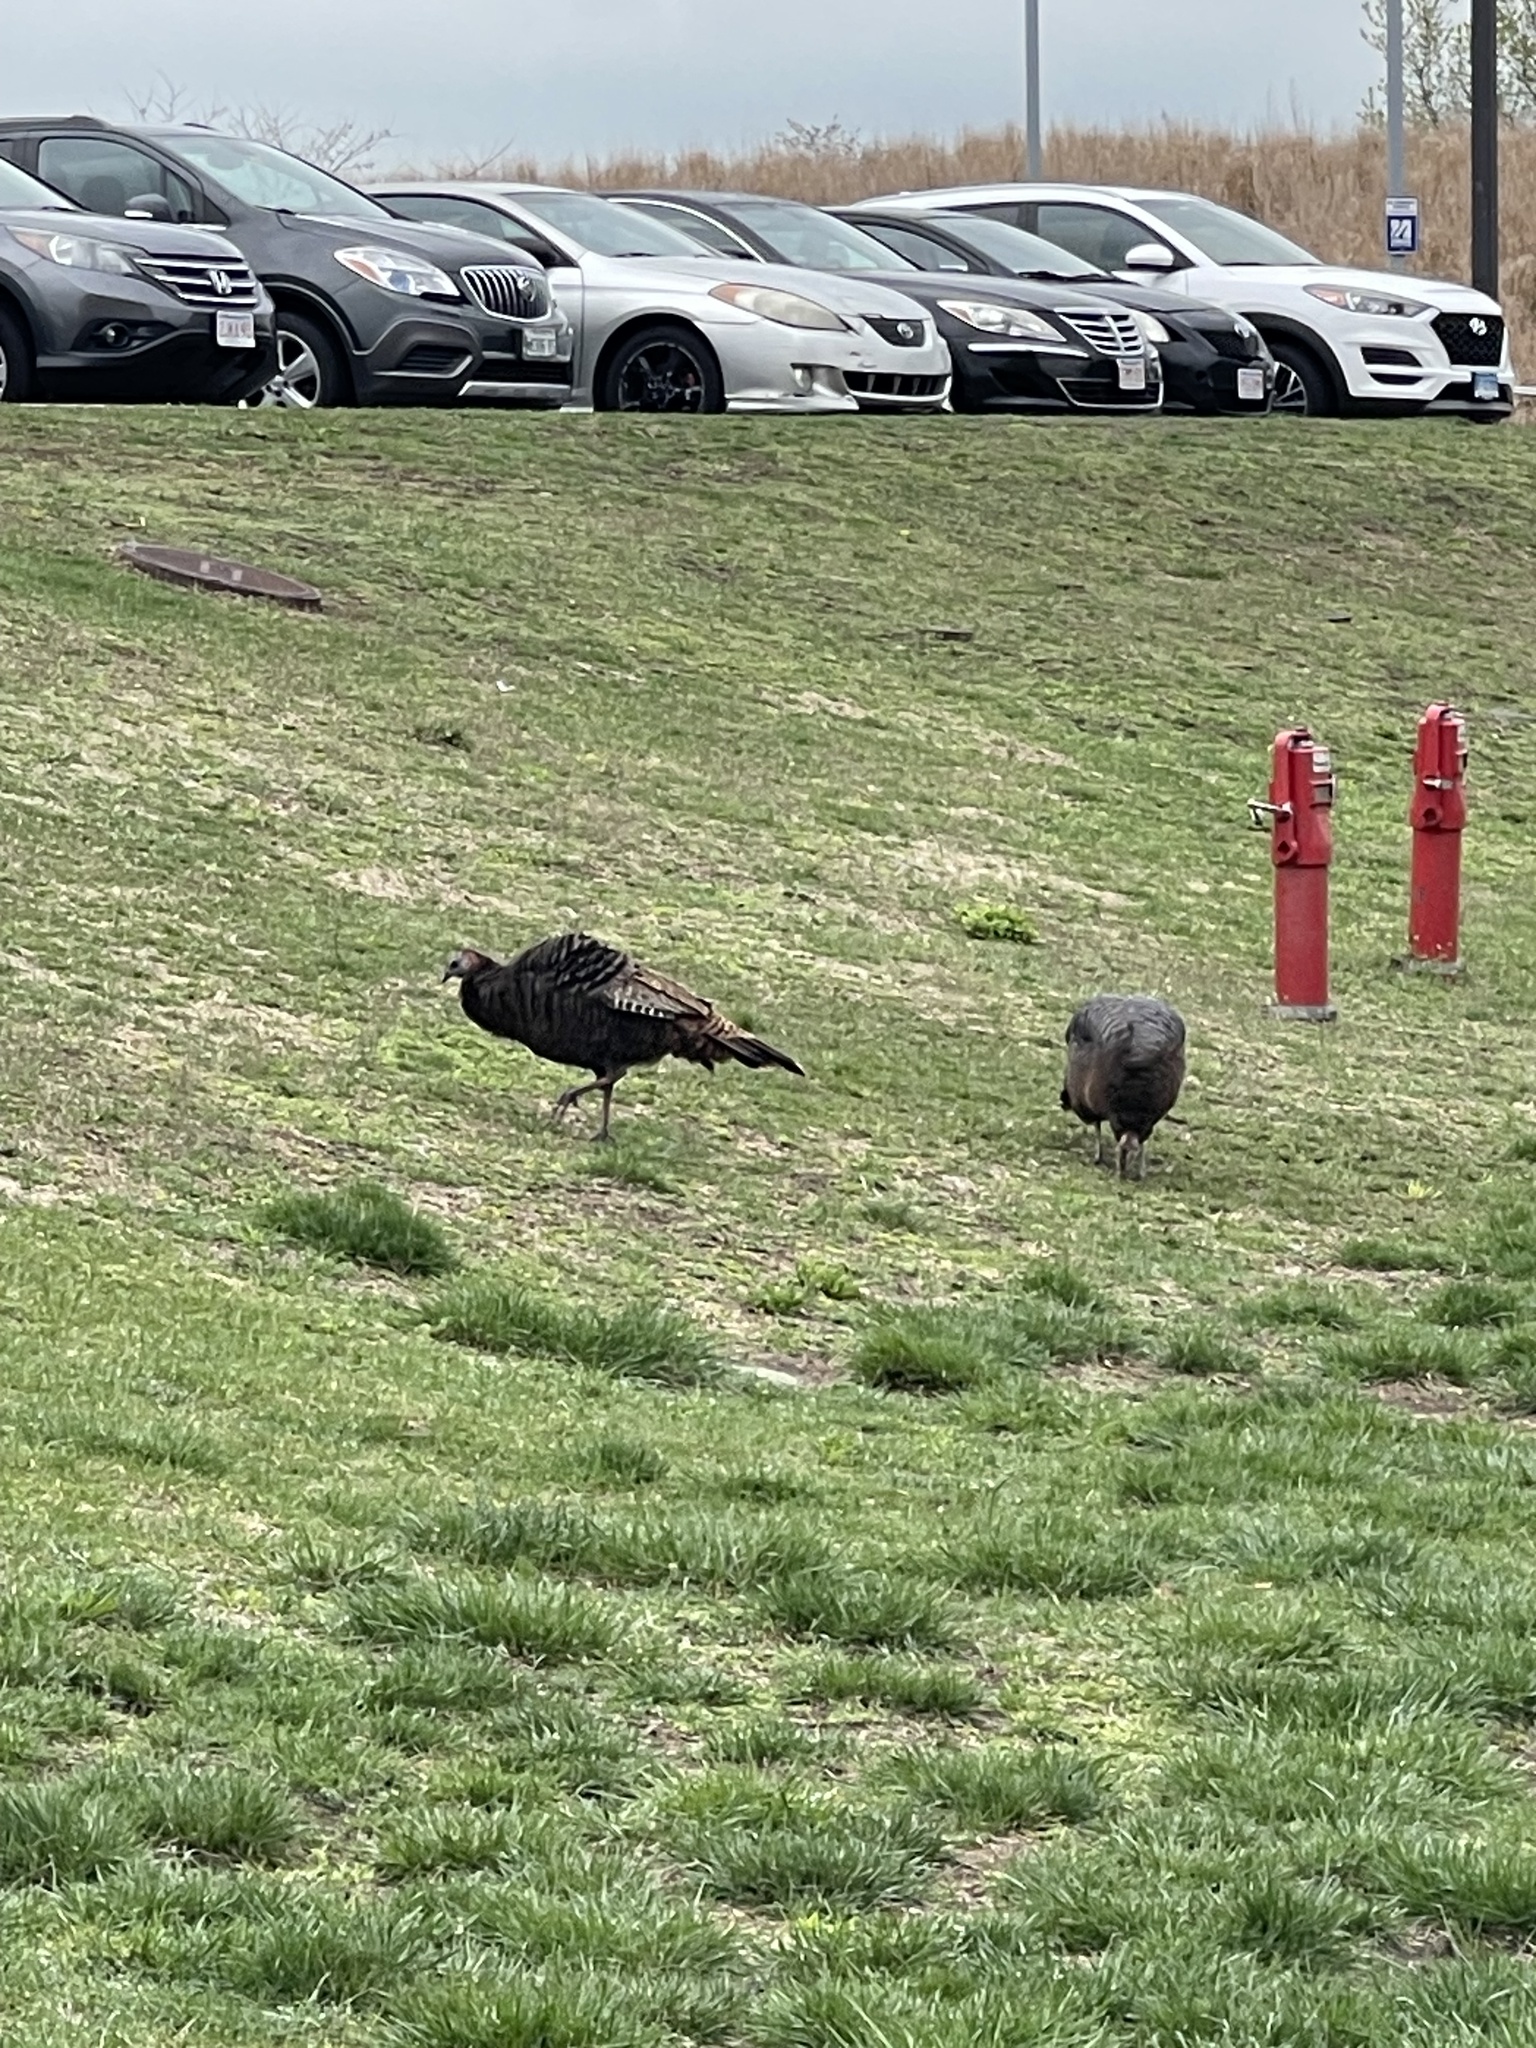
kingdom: Animalia
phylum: Chordata
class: Aves
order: Galliformes
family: Phasianidae
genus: Meleagris
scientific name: Meleagris gallopavo
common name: Wild turkey
